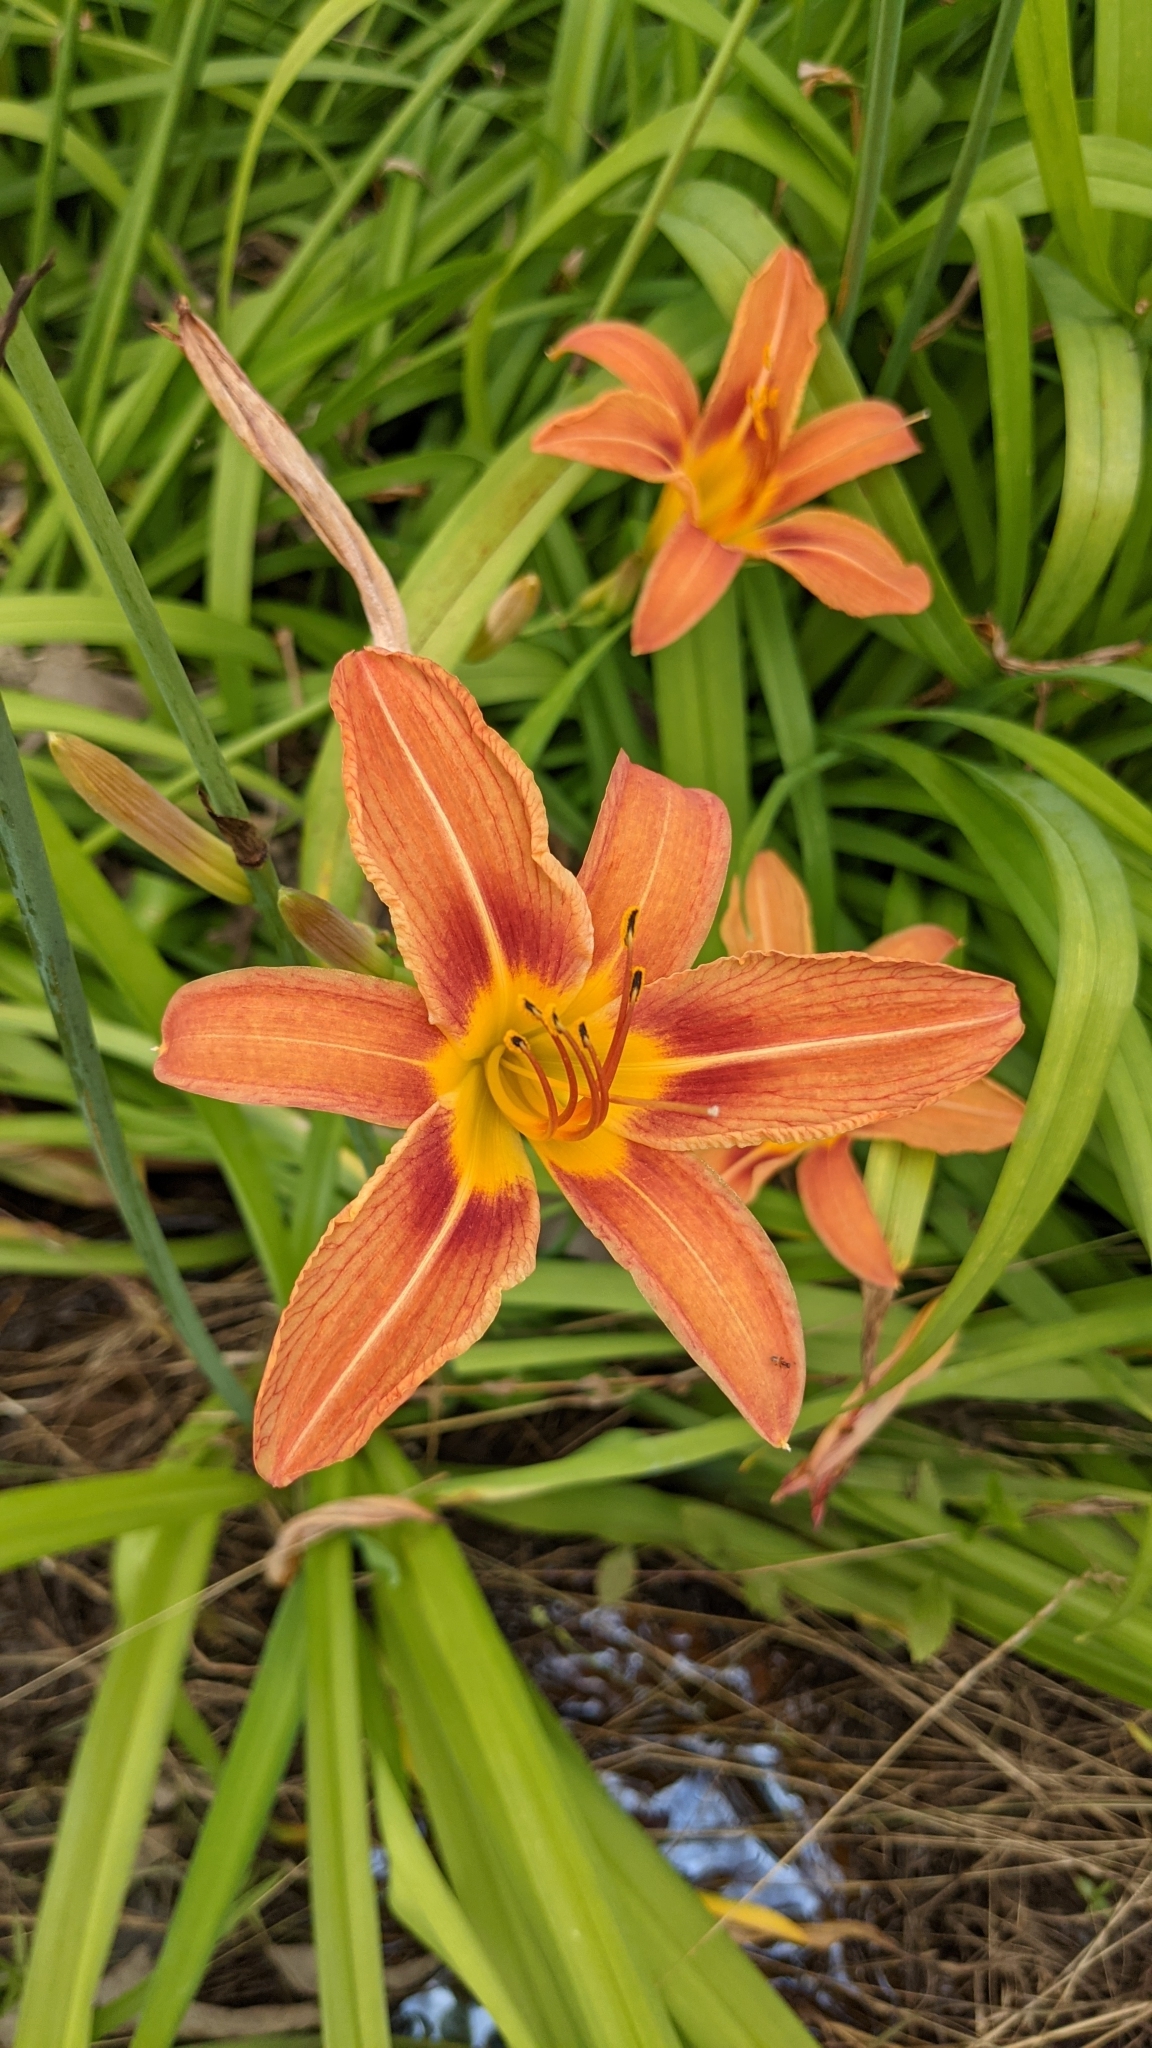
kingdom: Plantae
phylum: Tracheophyta
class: Liliopsida
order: Asparagales
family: Asphodelaceae
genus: Hemerocallis
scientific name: Hemerocallis fulva
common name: Orange day-lily
